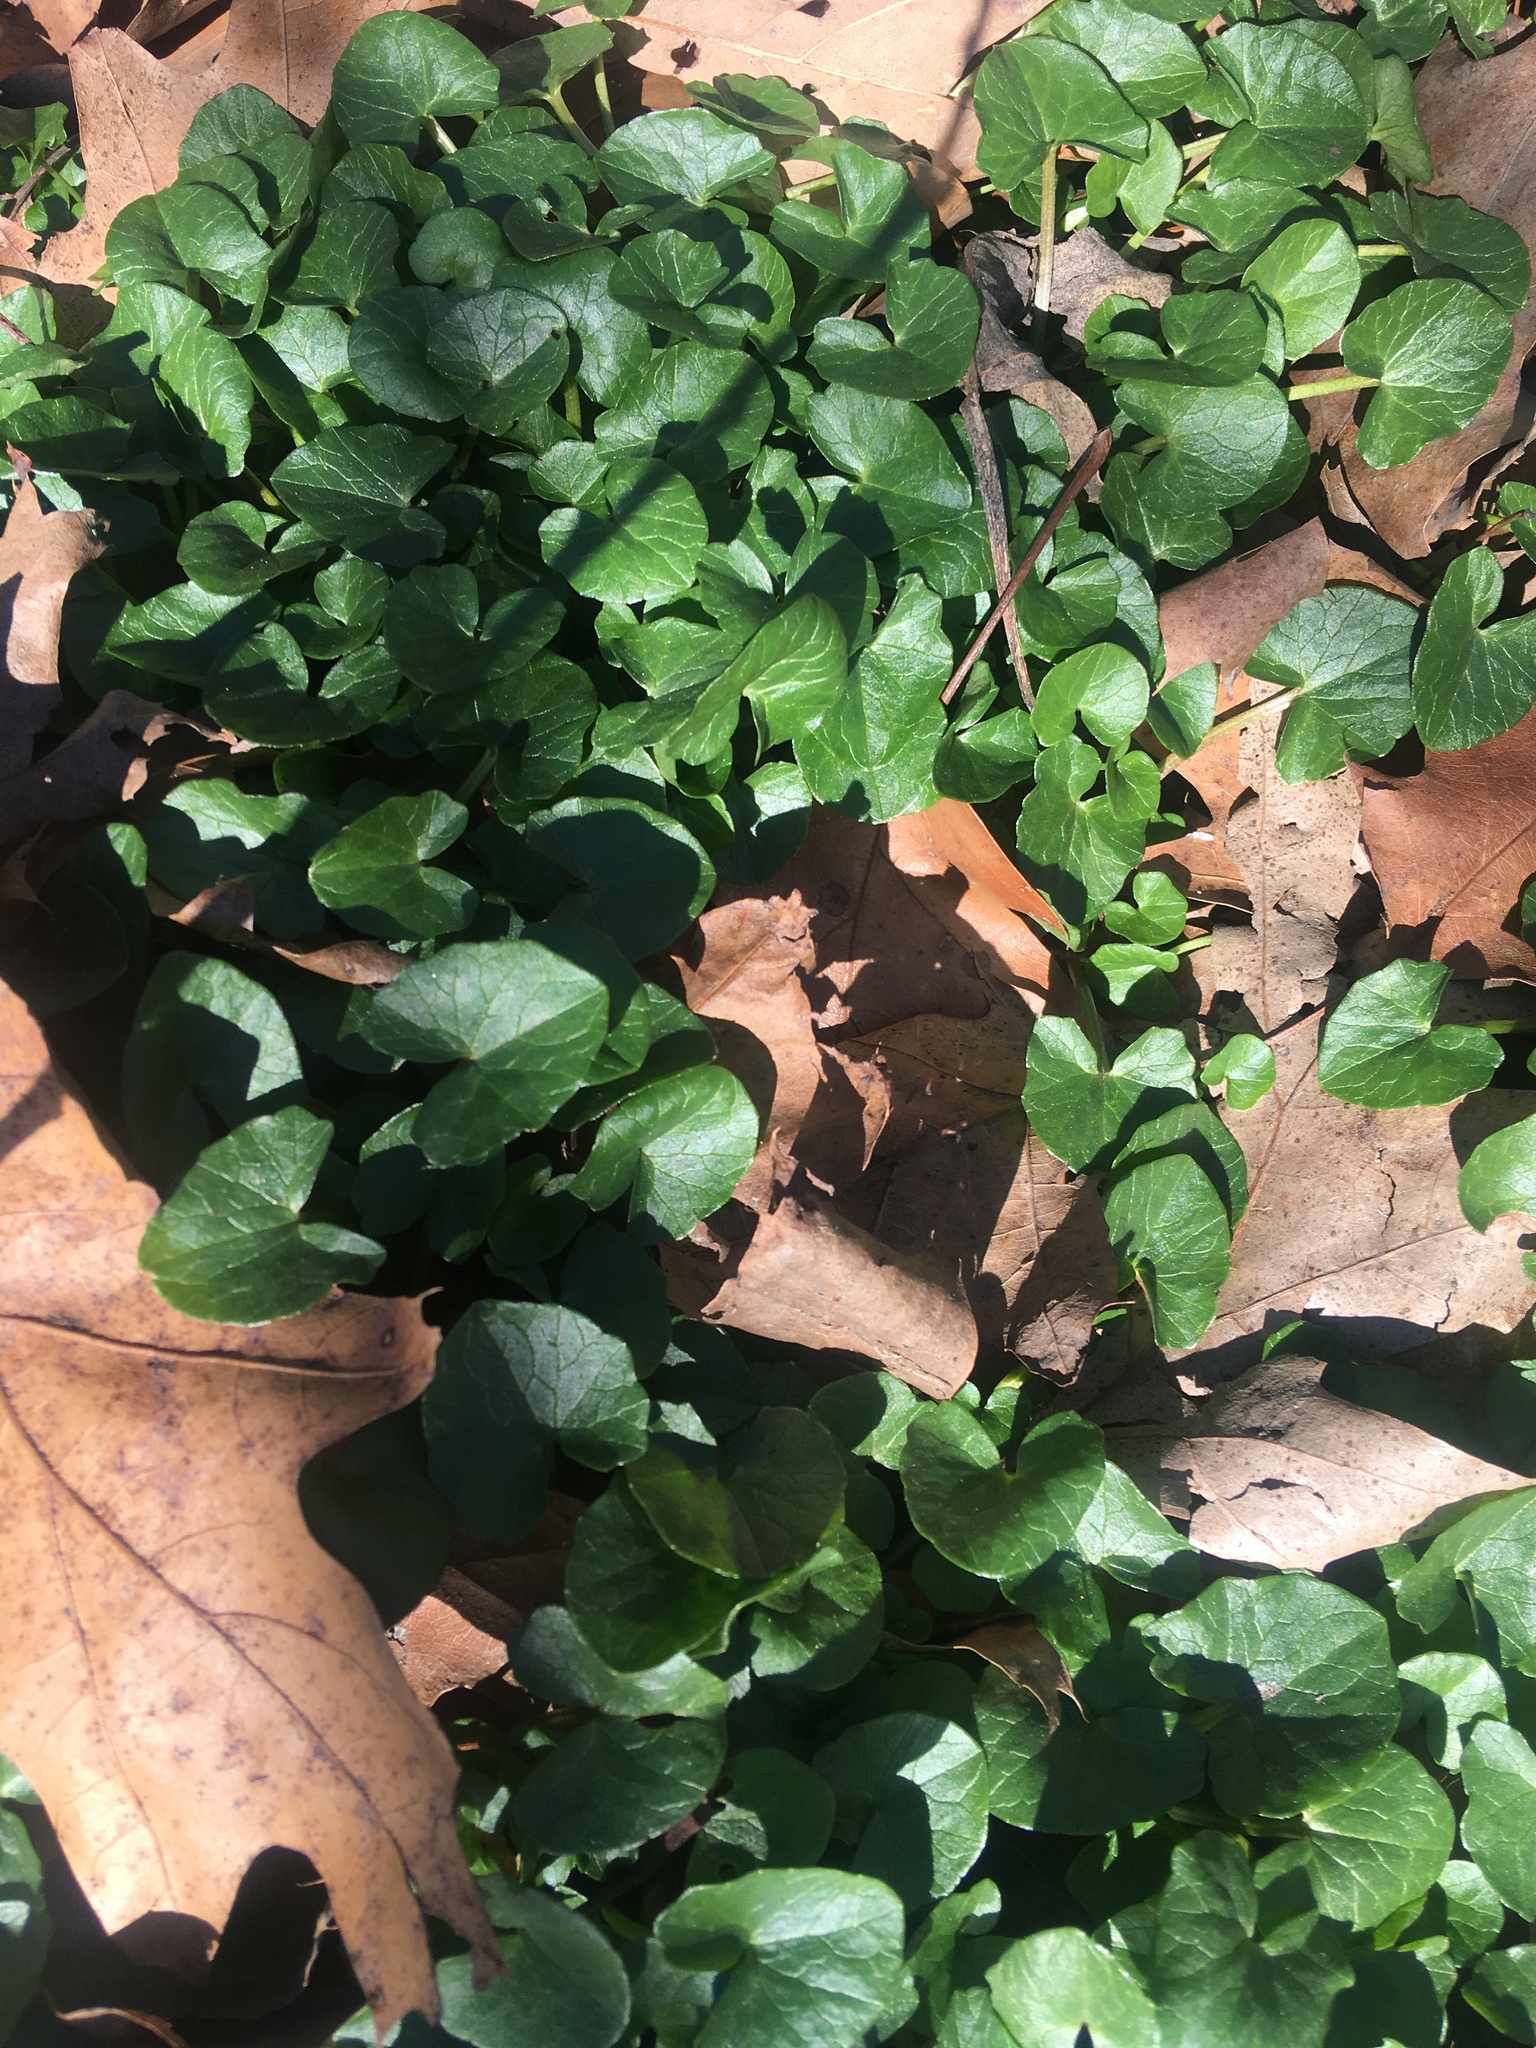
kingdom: Plantae
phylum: Tracheophyta
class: Magnoliopsida
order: Ranunculales
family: Ranunculaceae
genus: Ficaria
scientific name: Ficaria verna
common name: Lesser celandine
